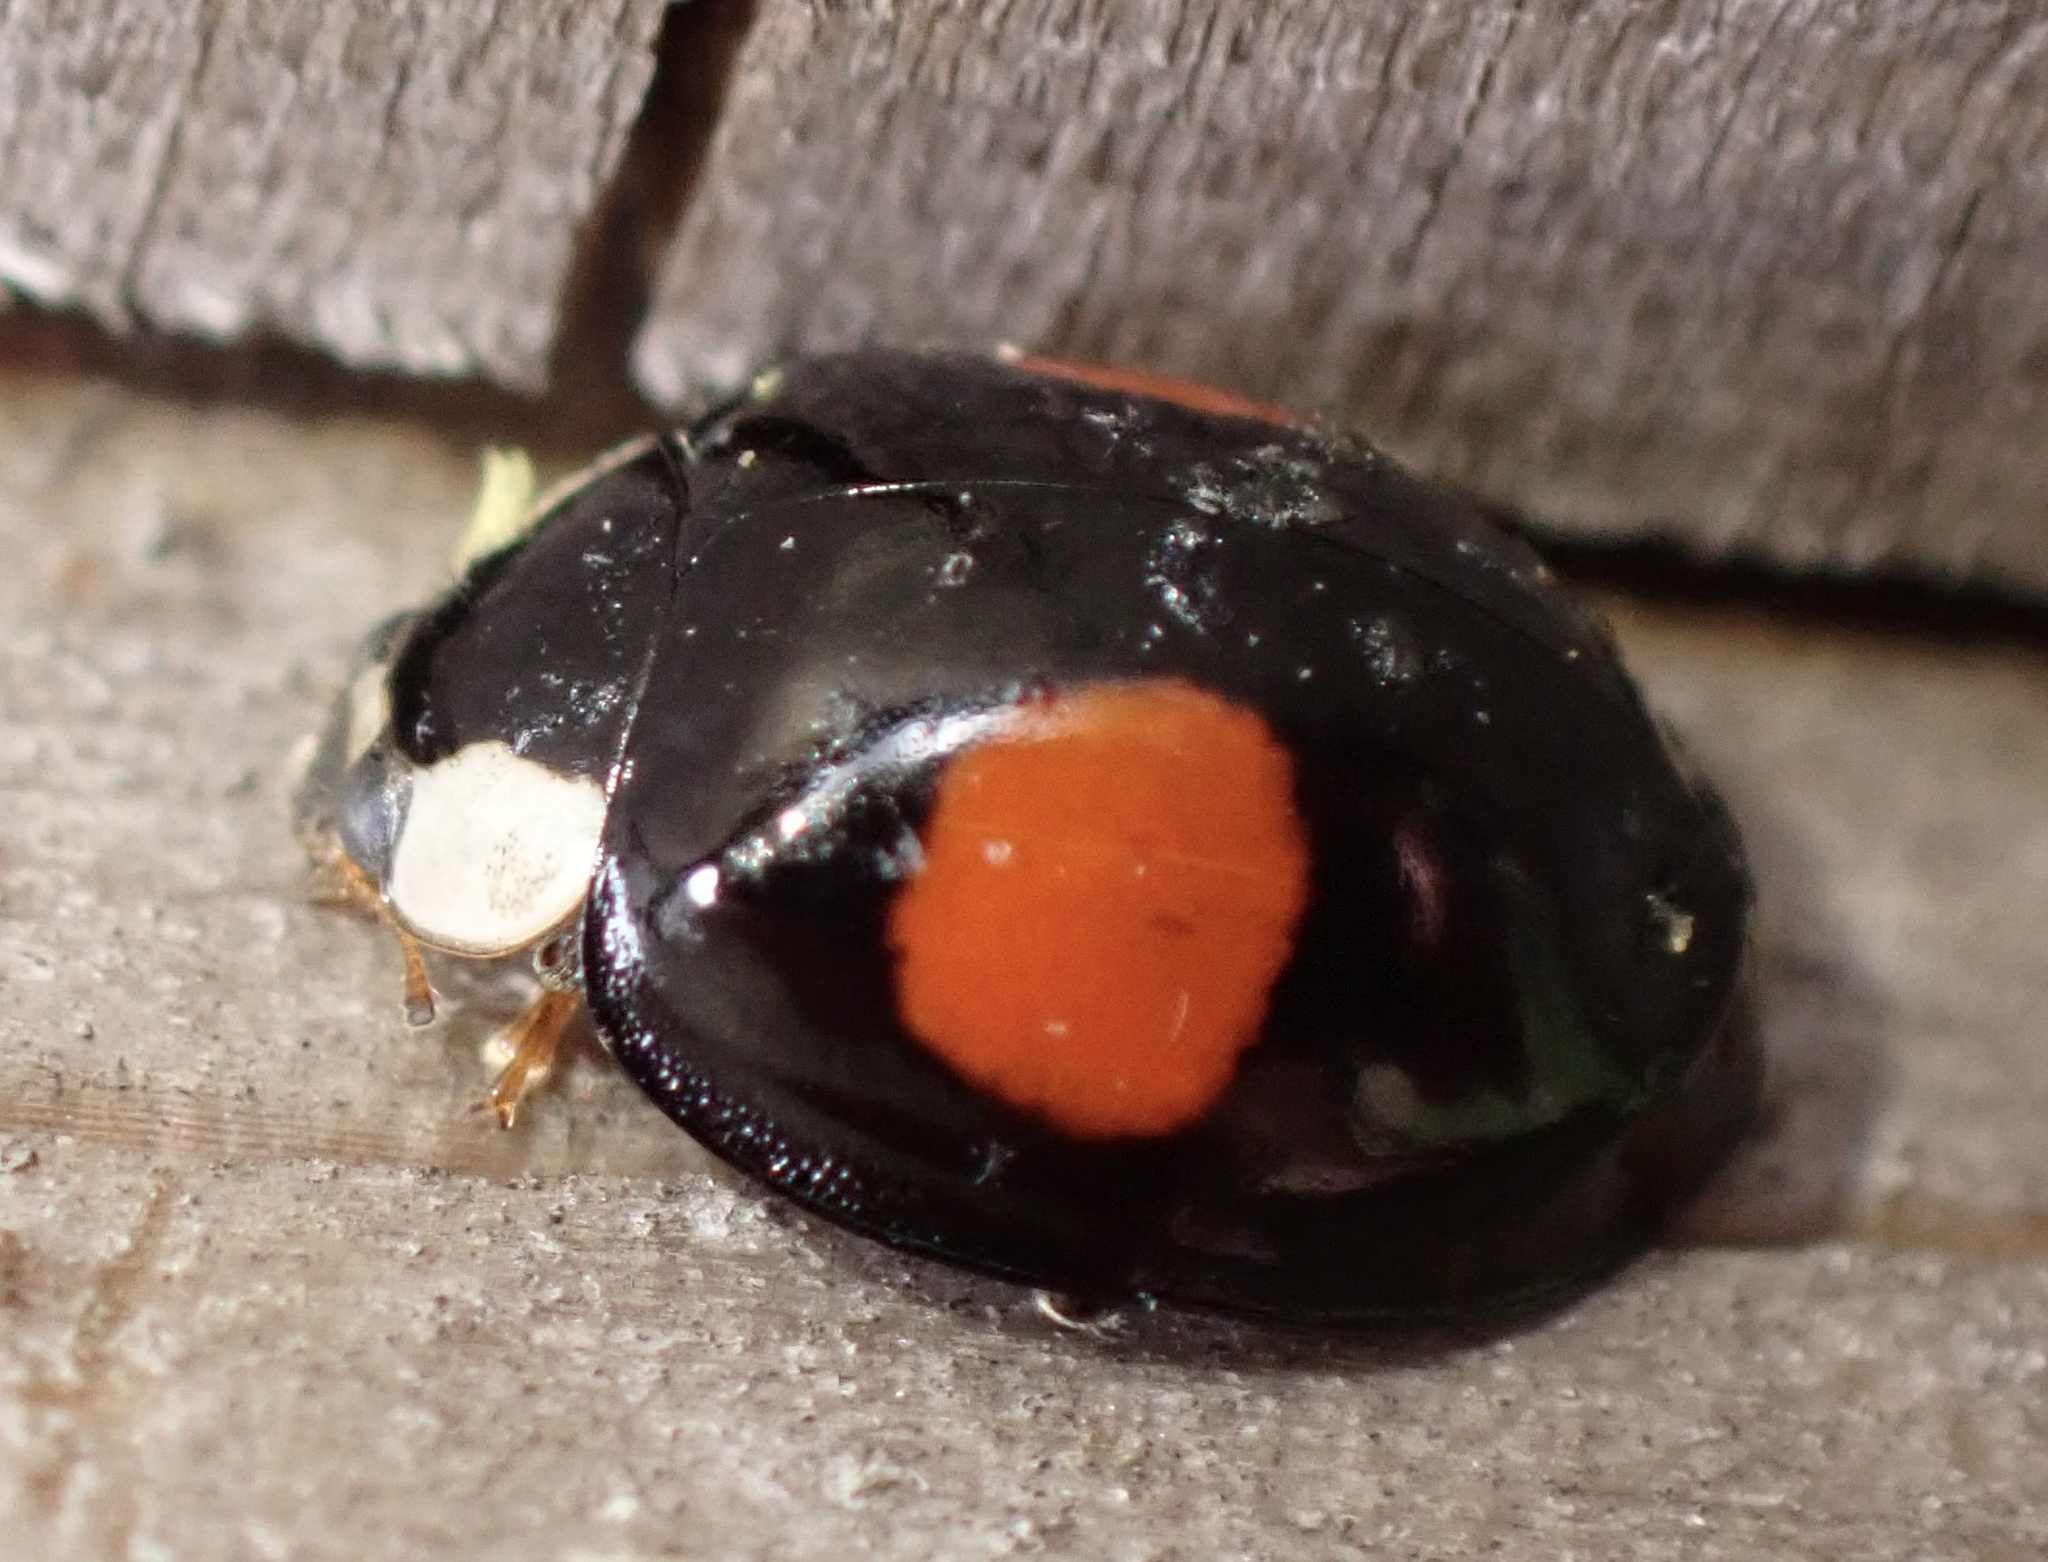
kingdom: Animalia
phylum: Arthropoda
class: Insecta
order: Coleoptera
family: Coccinellidae
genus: Harmonia
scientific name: Harmonia axyridis
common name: Harlequin ladybird
